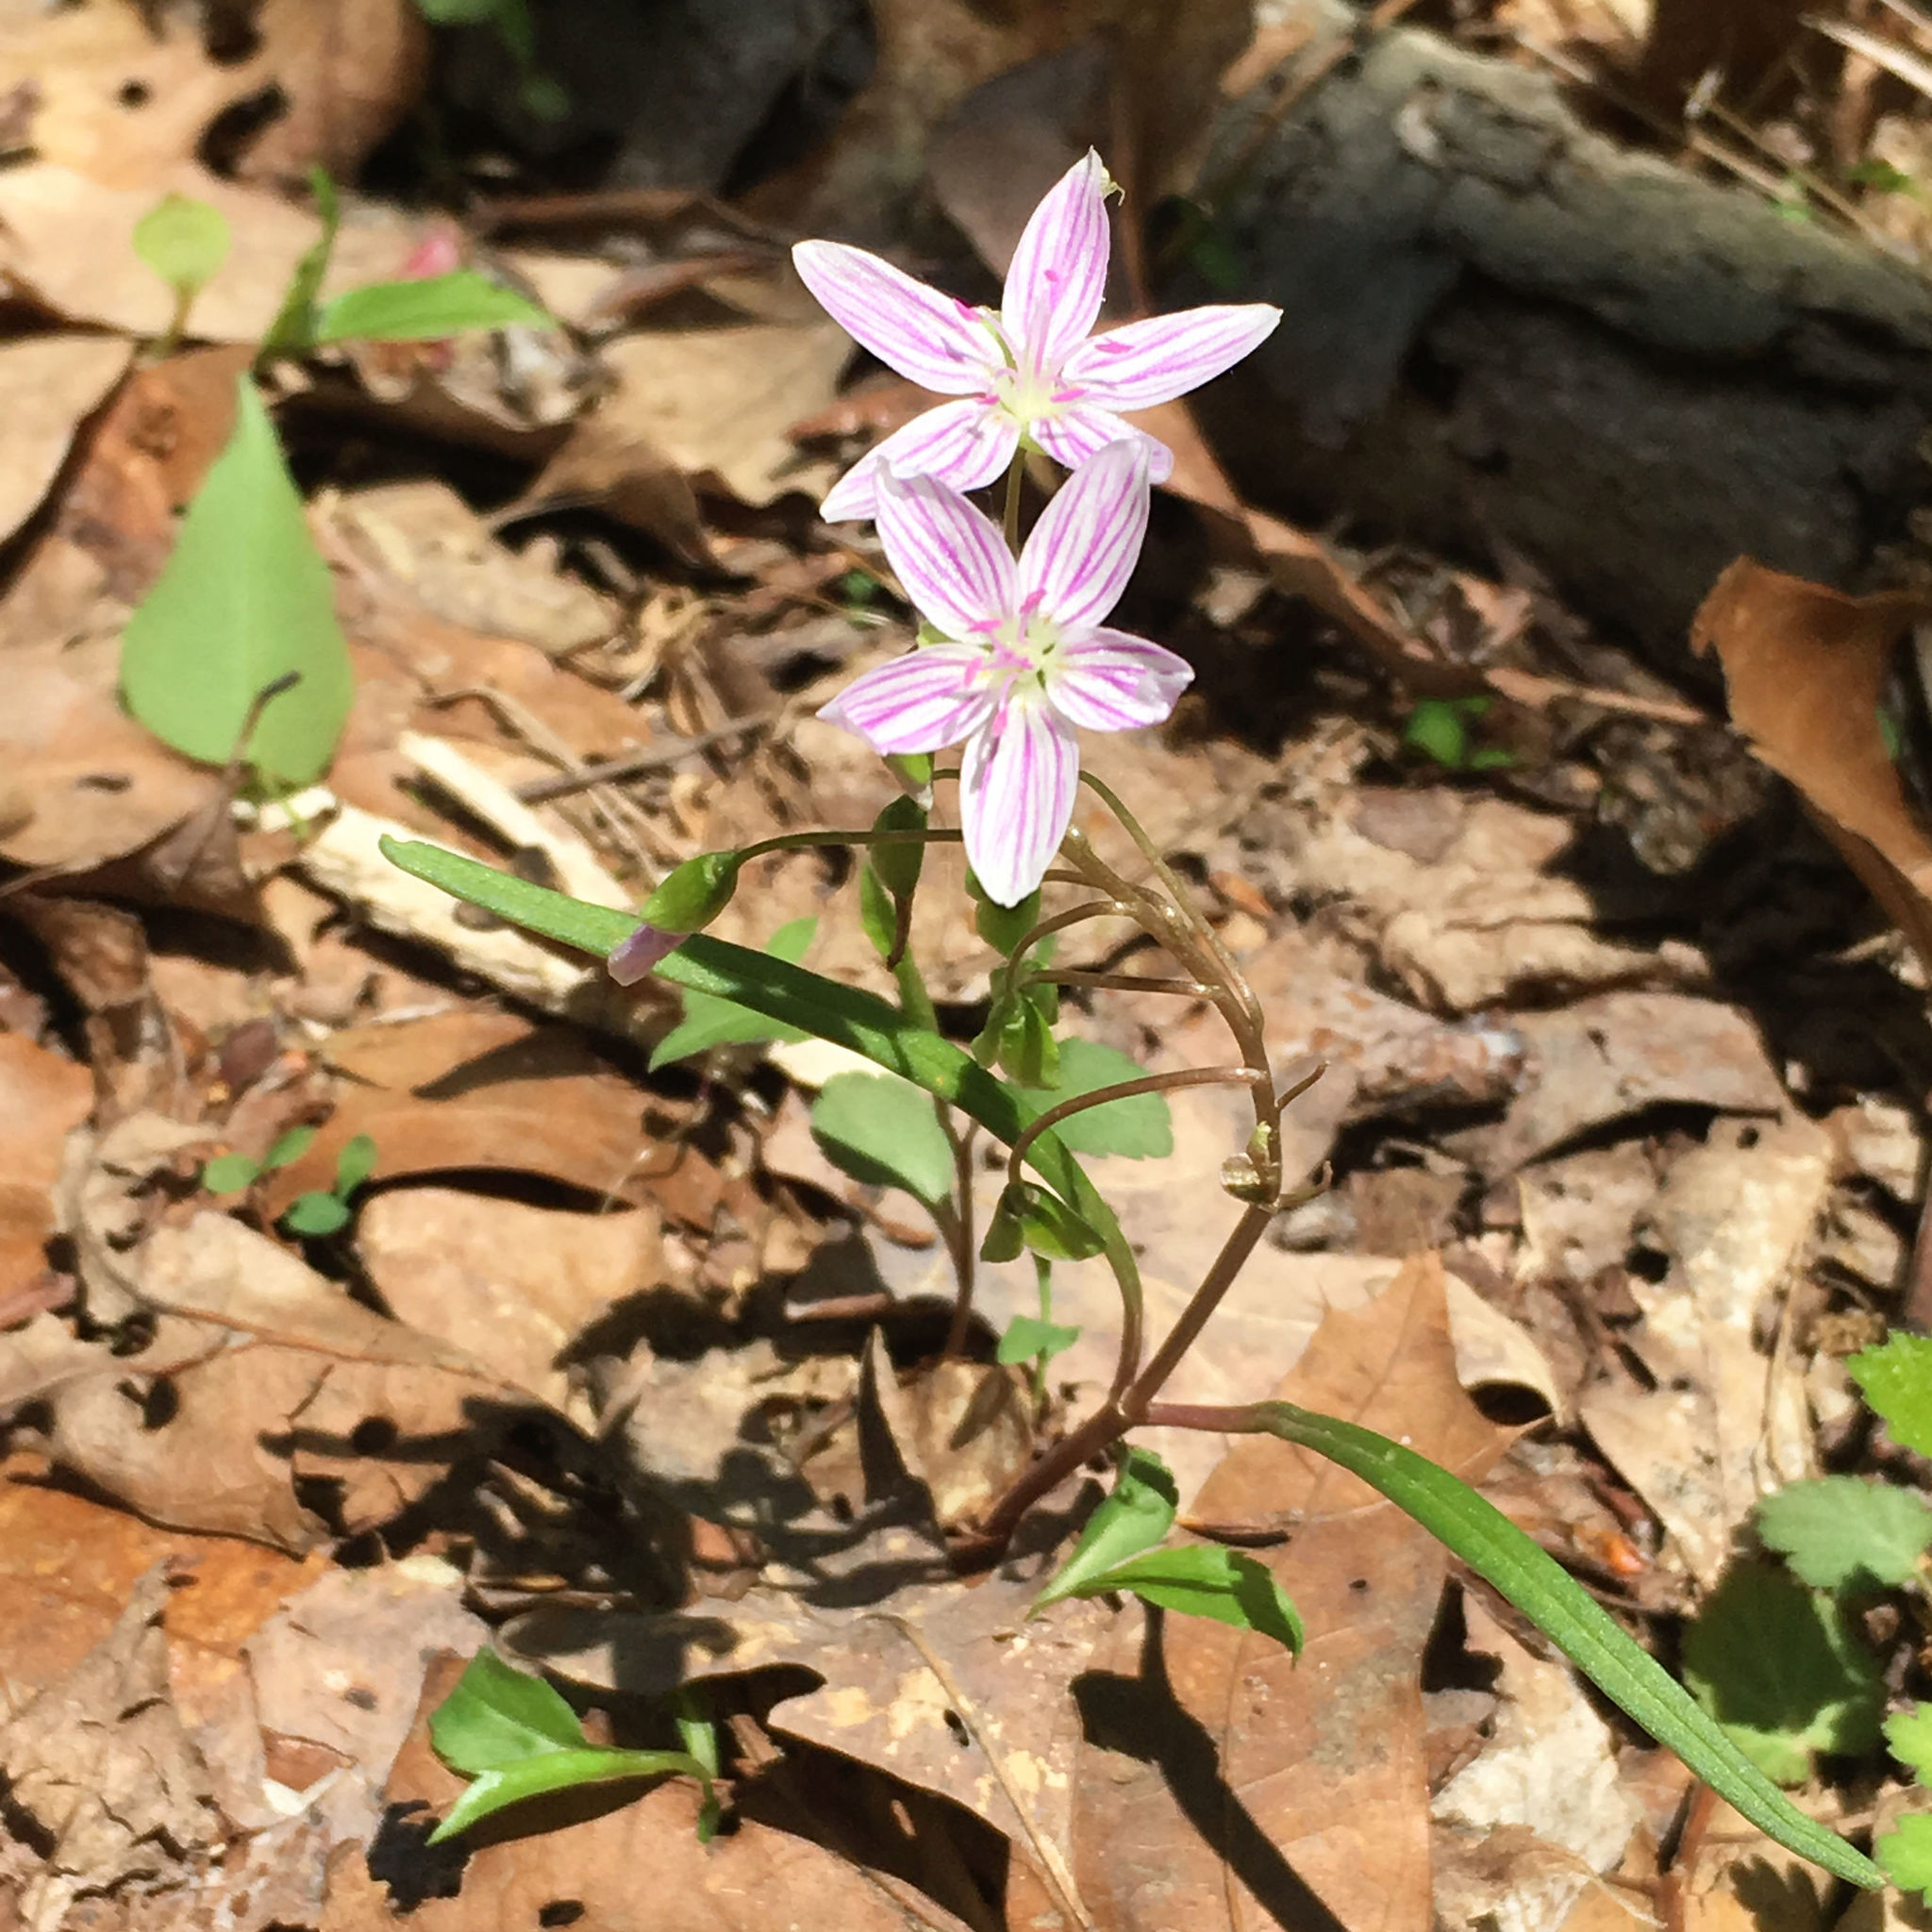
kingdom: Plantae
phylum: Tracheophyta
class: Magnoliopsida
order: Caryophyllales
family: Montiaceae
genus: Claytonia
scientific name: Claytonia virginica
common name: Virginia springbeauty
